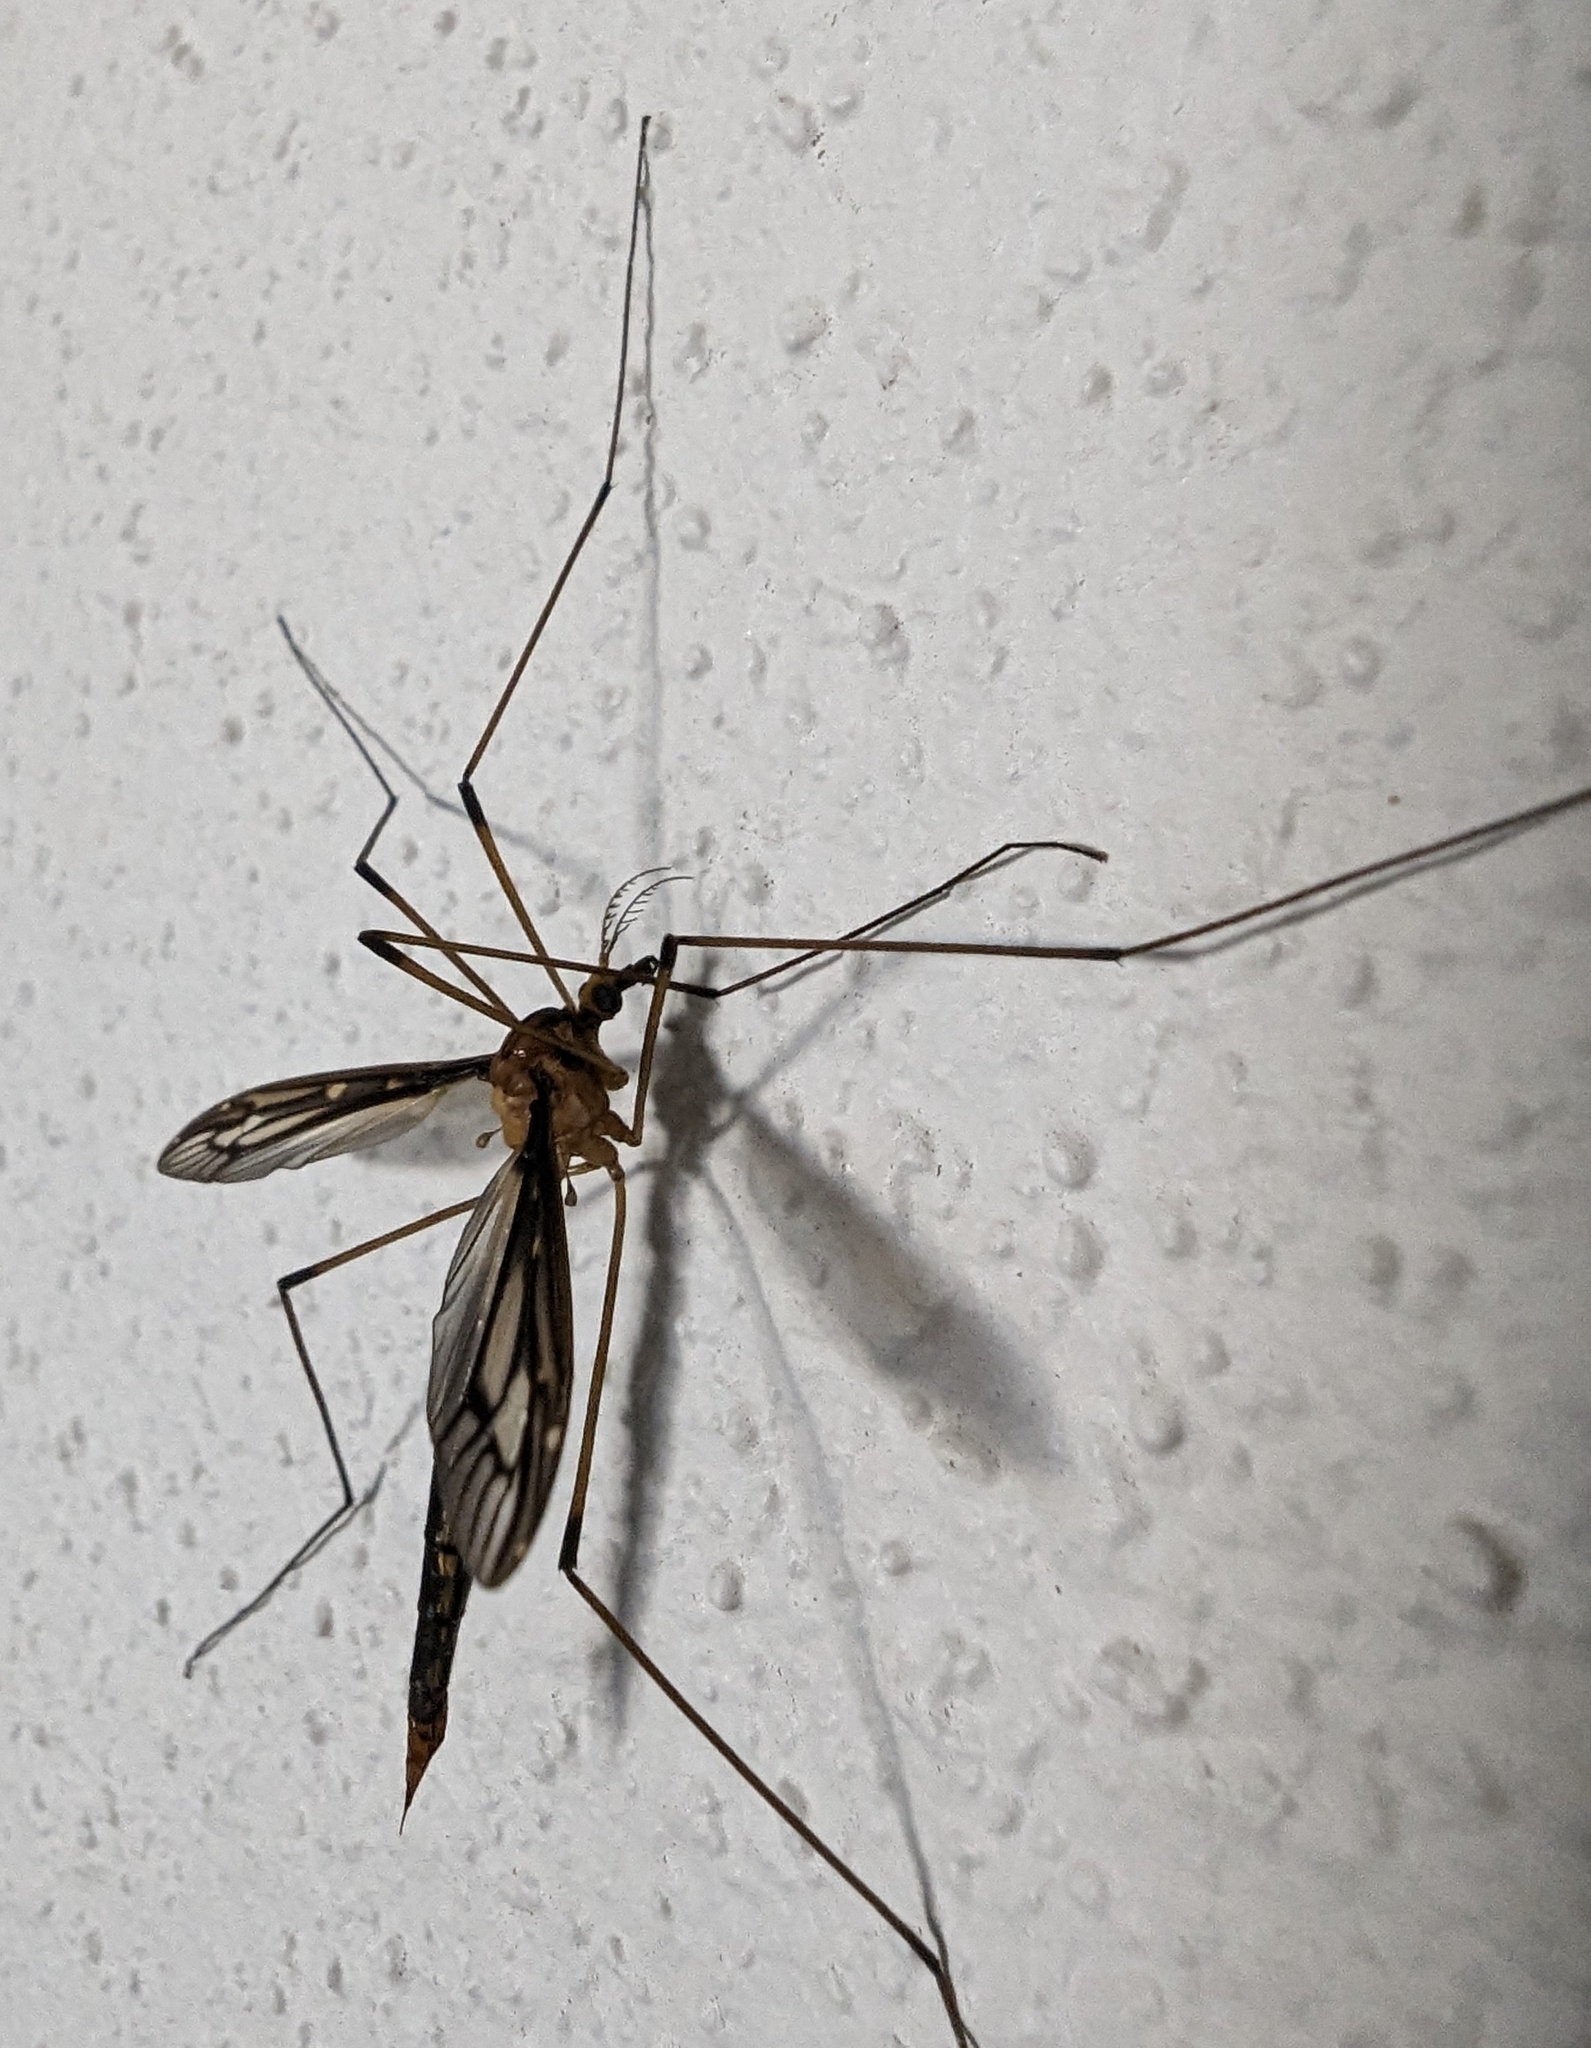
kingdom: Animalia
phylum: Arthropoda
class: Insecta
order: Diptera
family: Tipulidae
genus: Ptilogyna
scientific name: Ptilogyna ramicornis
